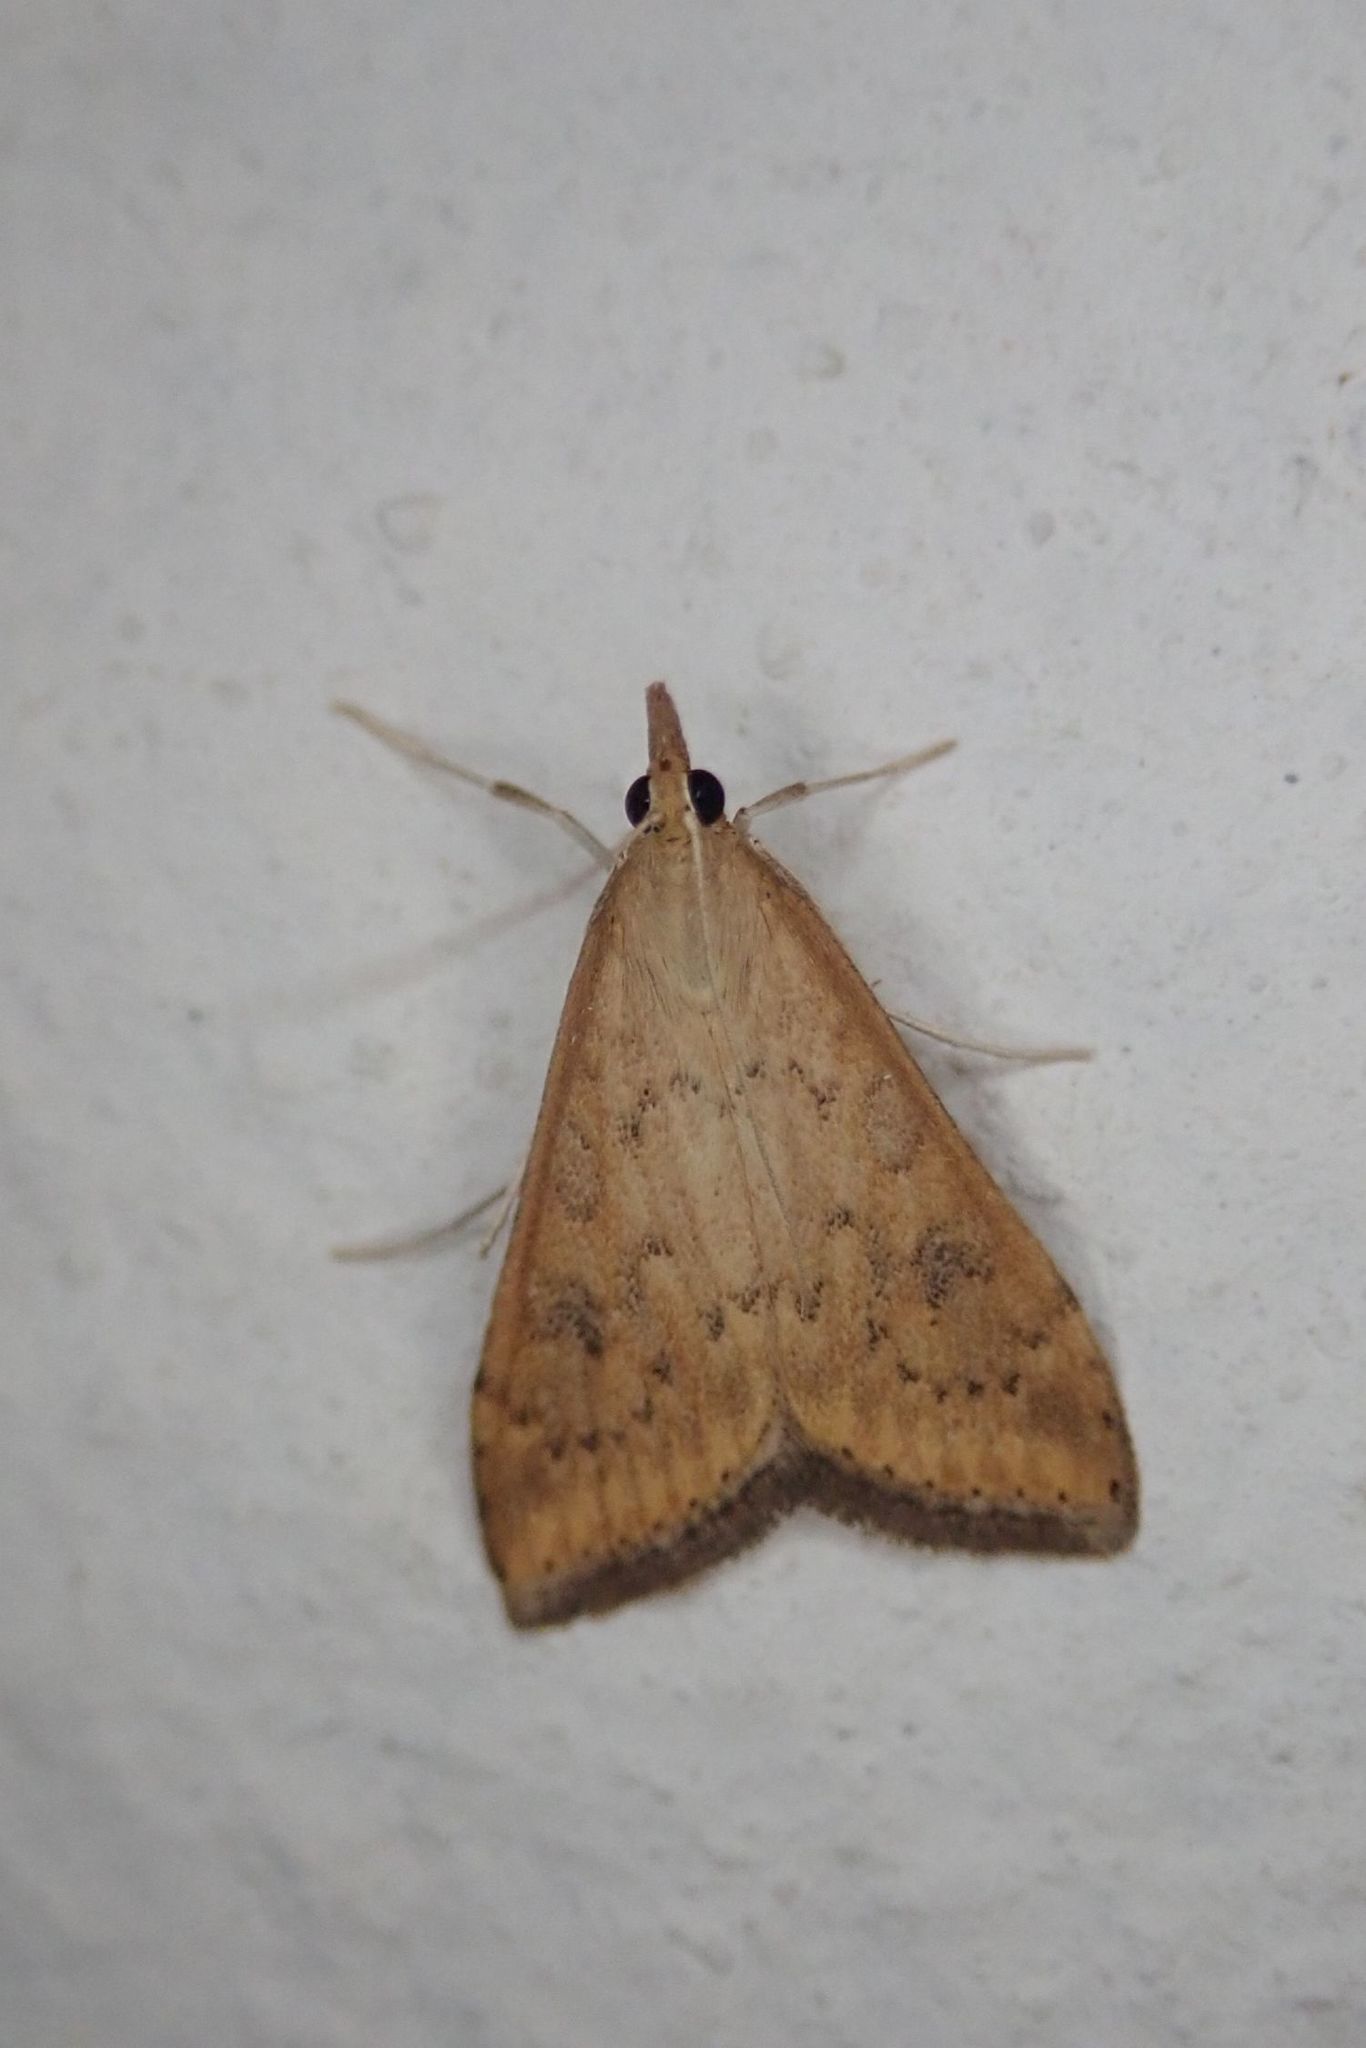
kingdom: Animalia
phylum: Arthropoda
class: Insecta
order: Lepidoptera
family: Crambidae
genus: Udea
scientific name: Udea ferrugalis
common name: Rusty dot
